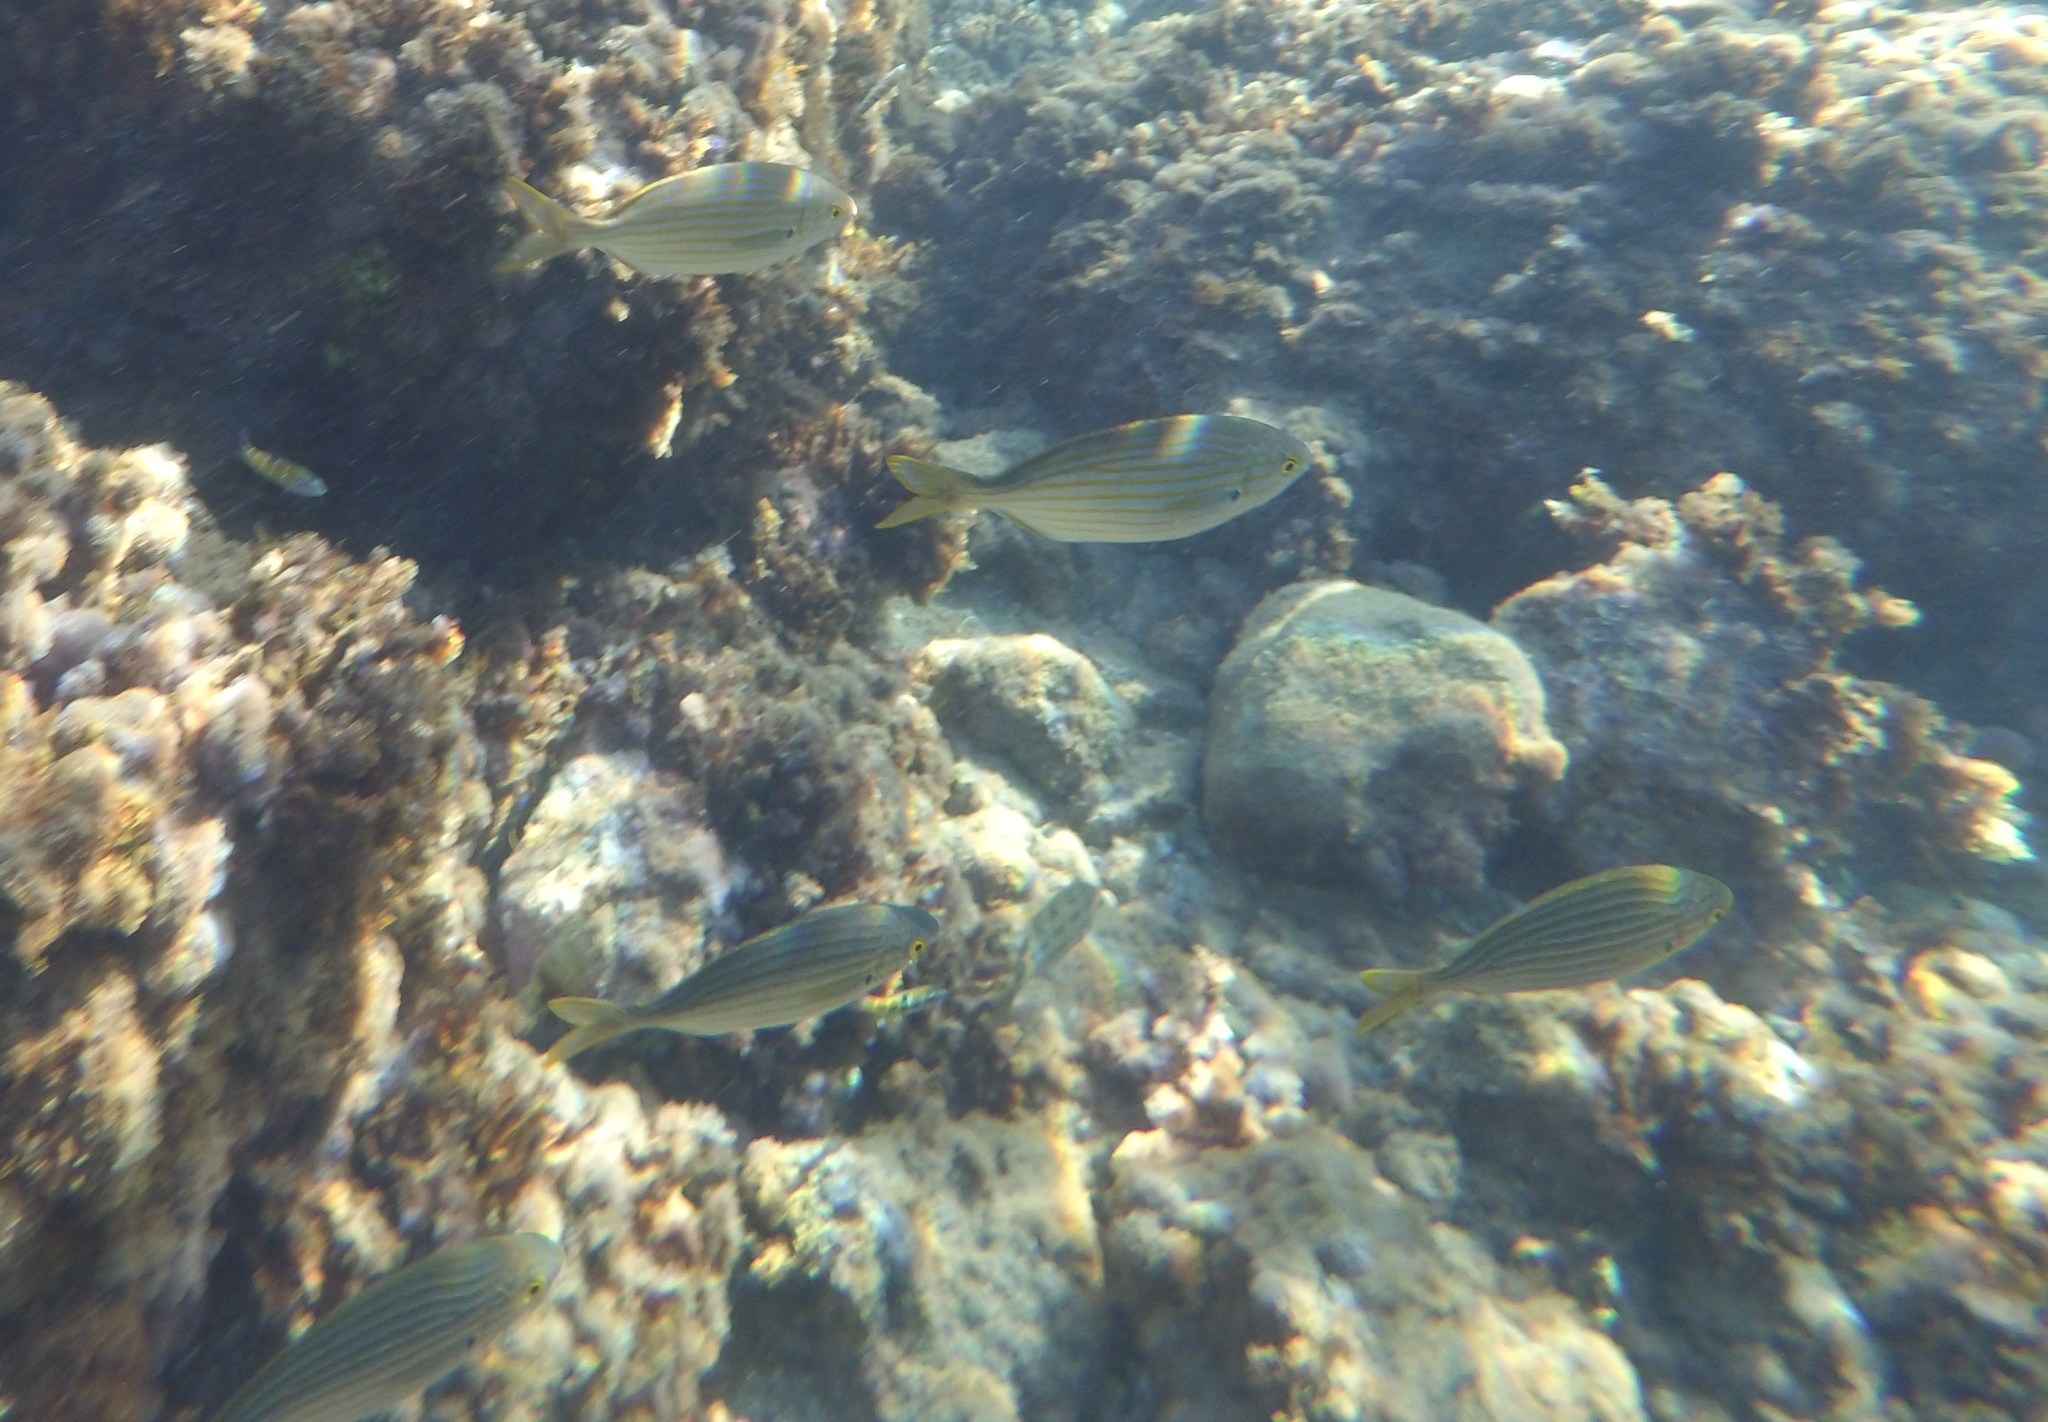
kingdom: Animalia
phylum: Chordata
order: Perciformes
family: Sparidae
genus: Sarpa
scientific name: Sarpa salpa
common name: Salema
